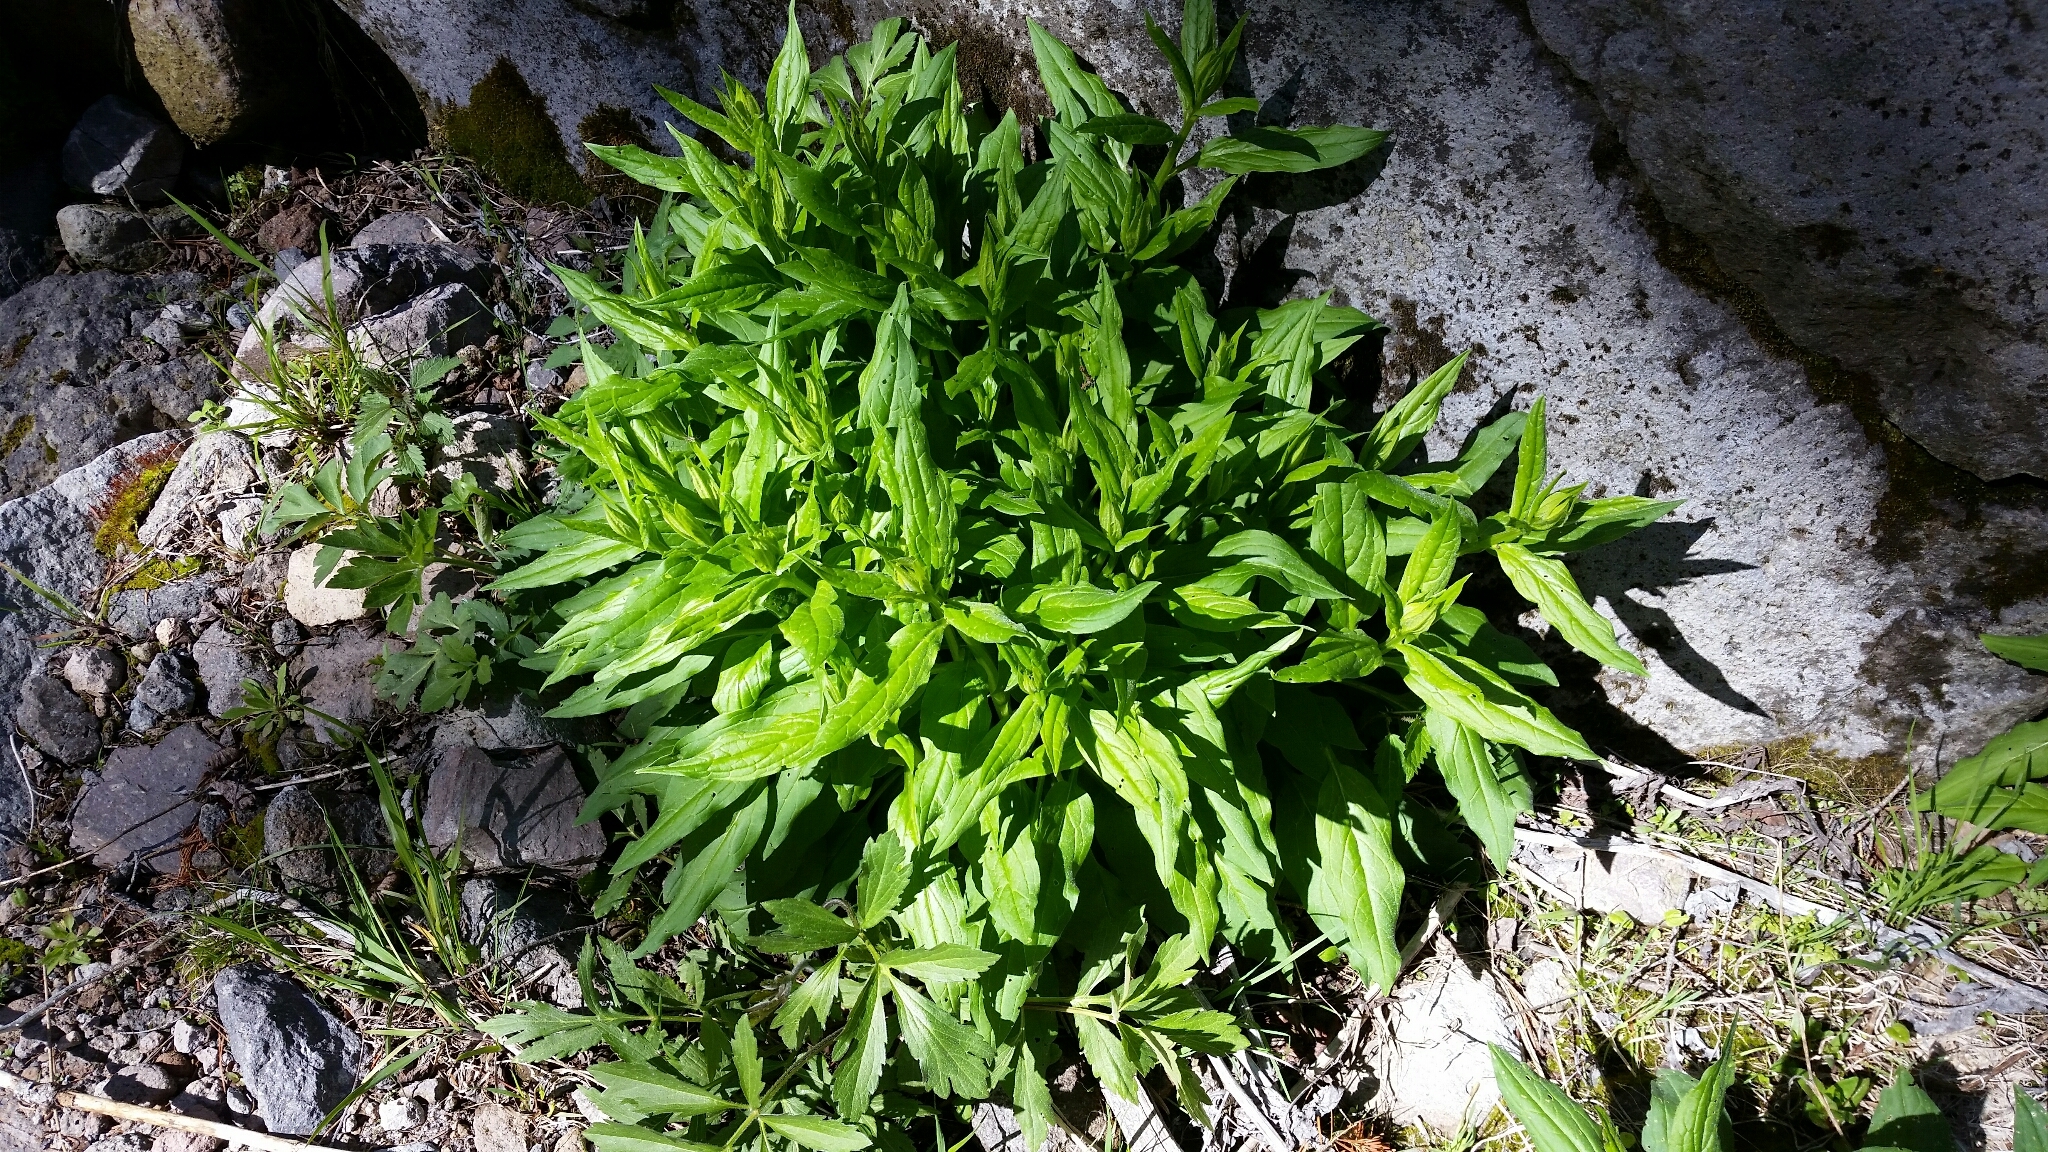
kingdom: Plantae
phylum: Tracheophyta
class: Magnoliopsida
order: Boraginales
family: Boraginaceae
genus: Mertensia
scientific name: Mertensia franciscana
